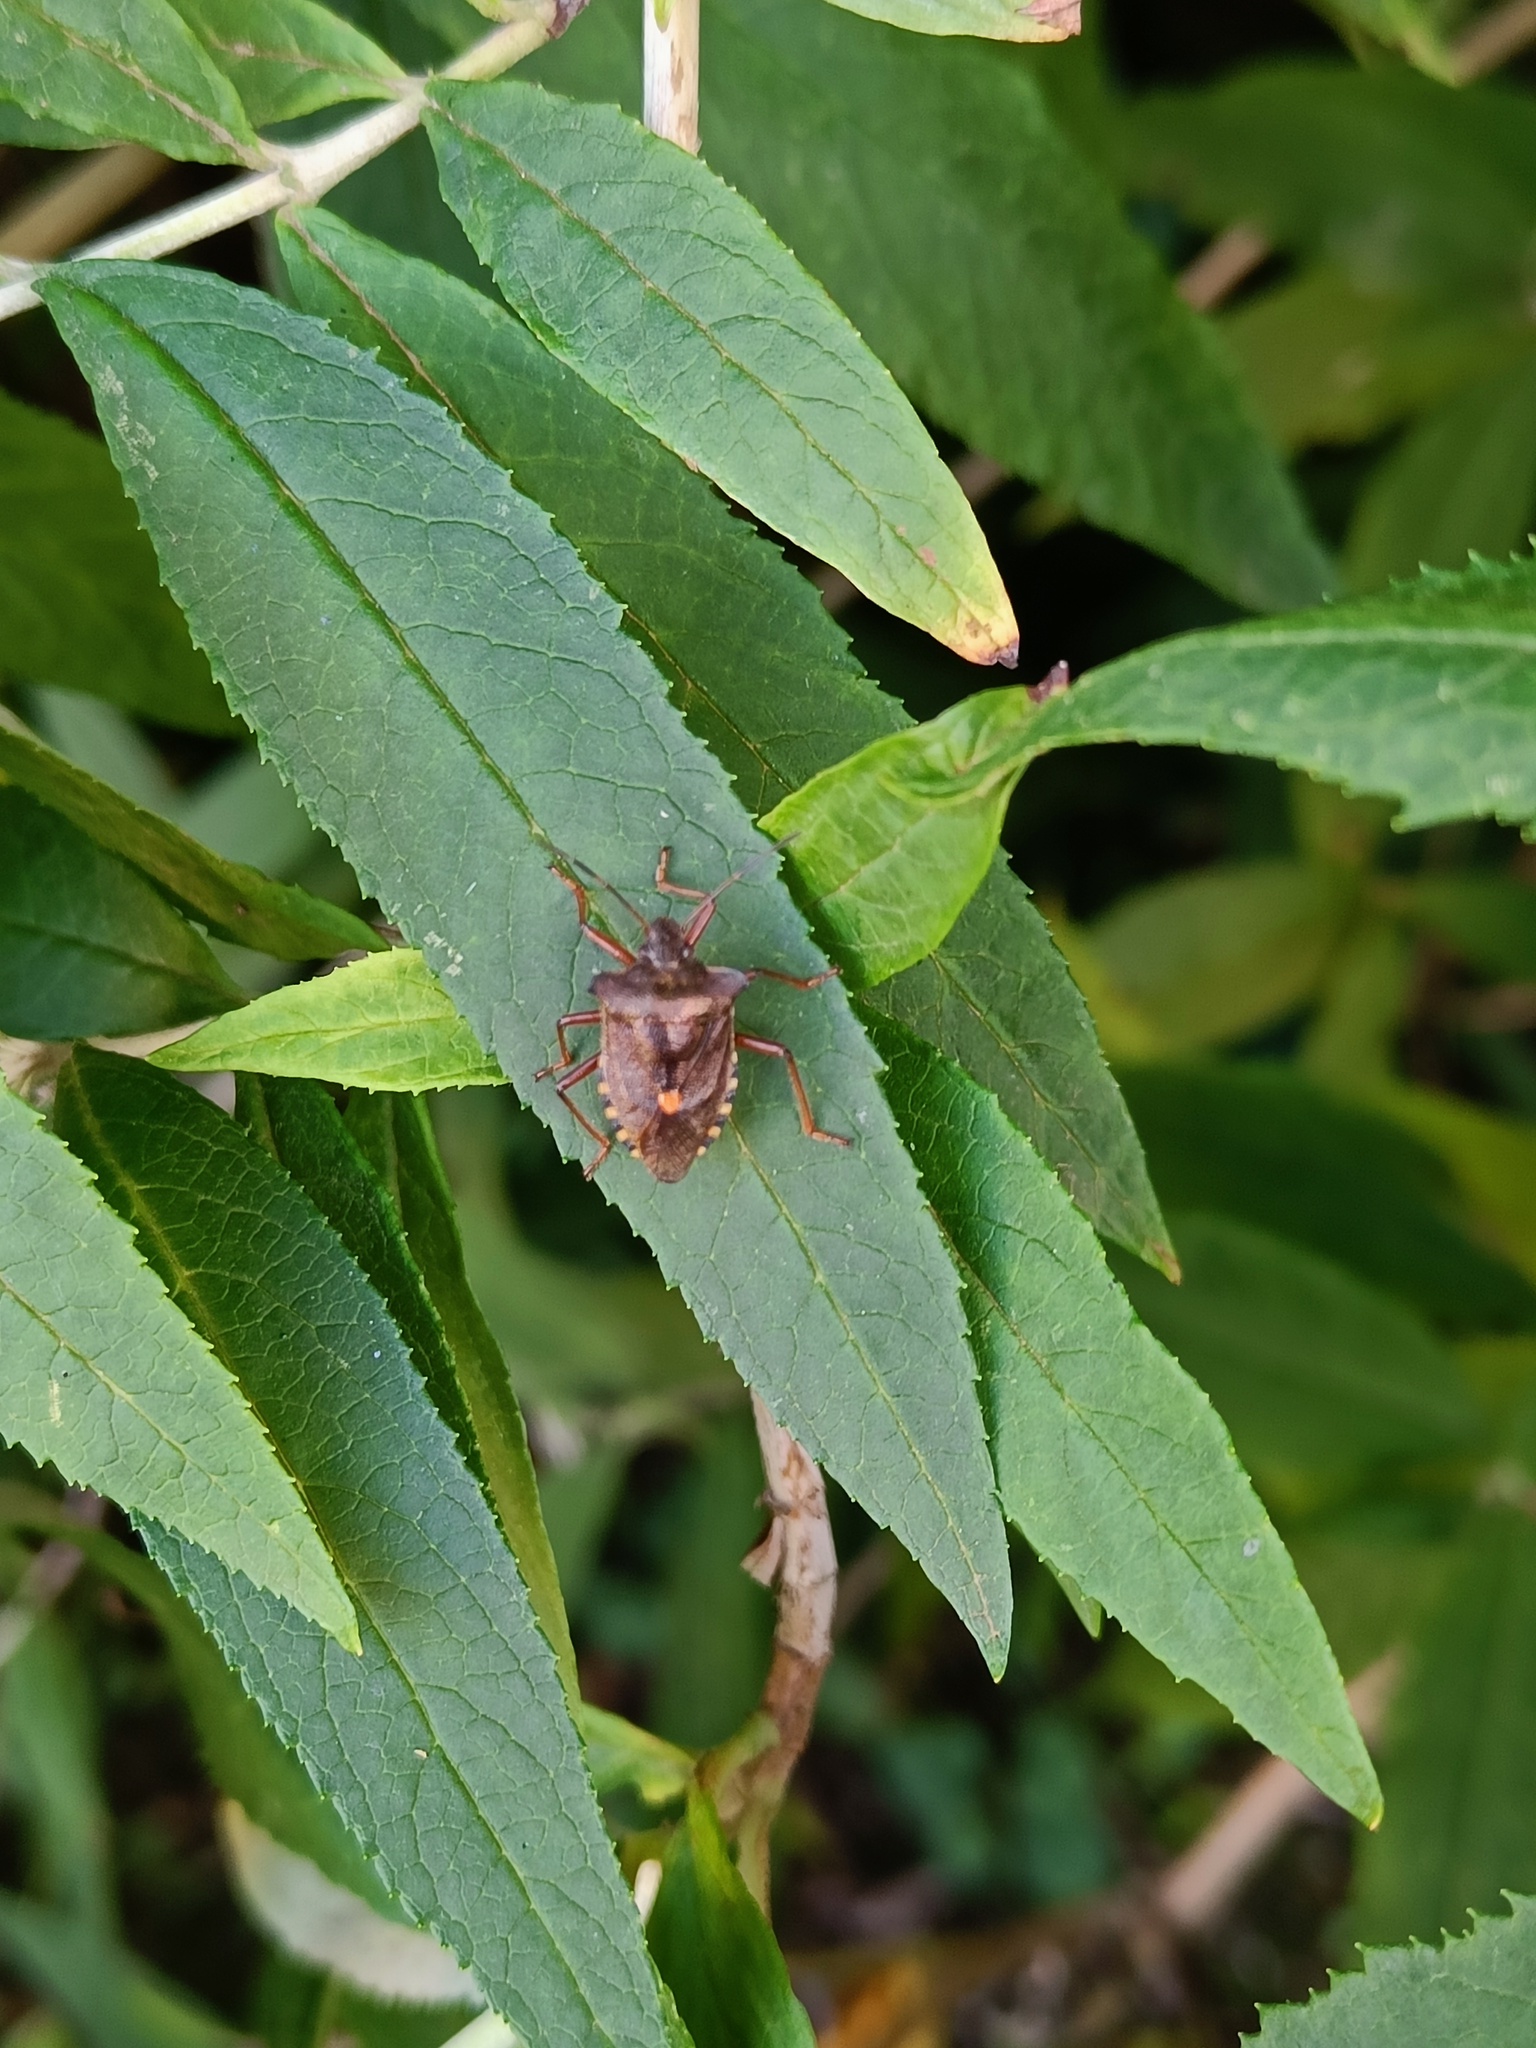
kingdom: Animalia
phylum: Arthropoda
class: Insecta
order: Hemiptera
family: Pentatomidae
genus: Pentatoma
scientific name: Pentatoma rufipes
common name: Forest bug
